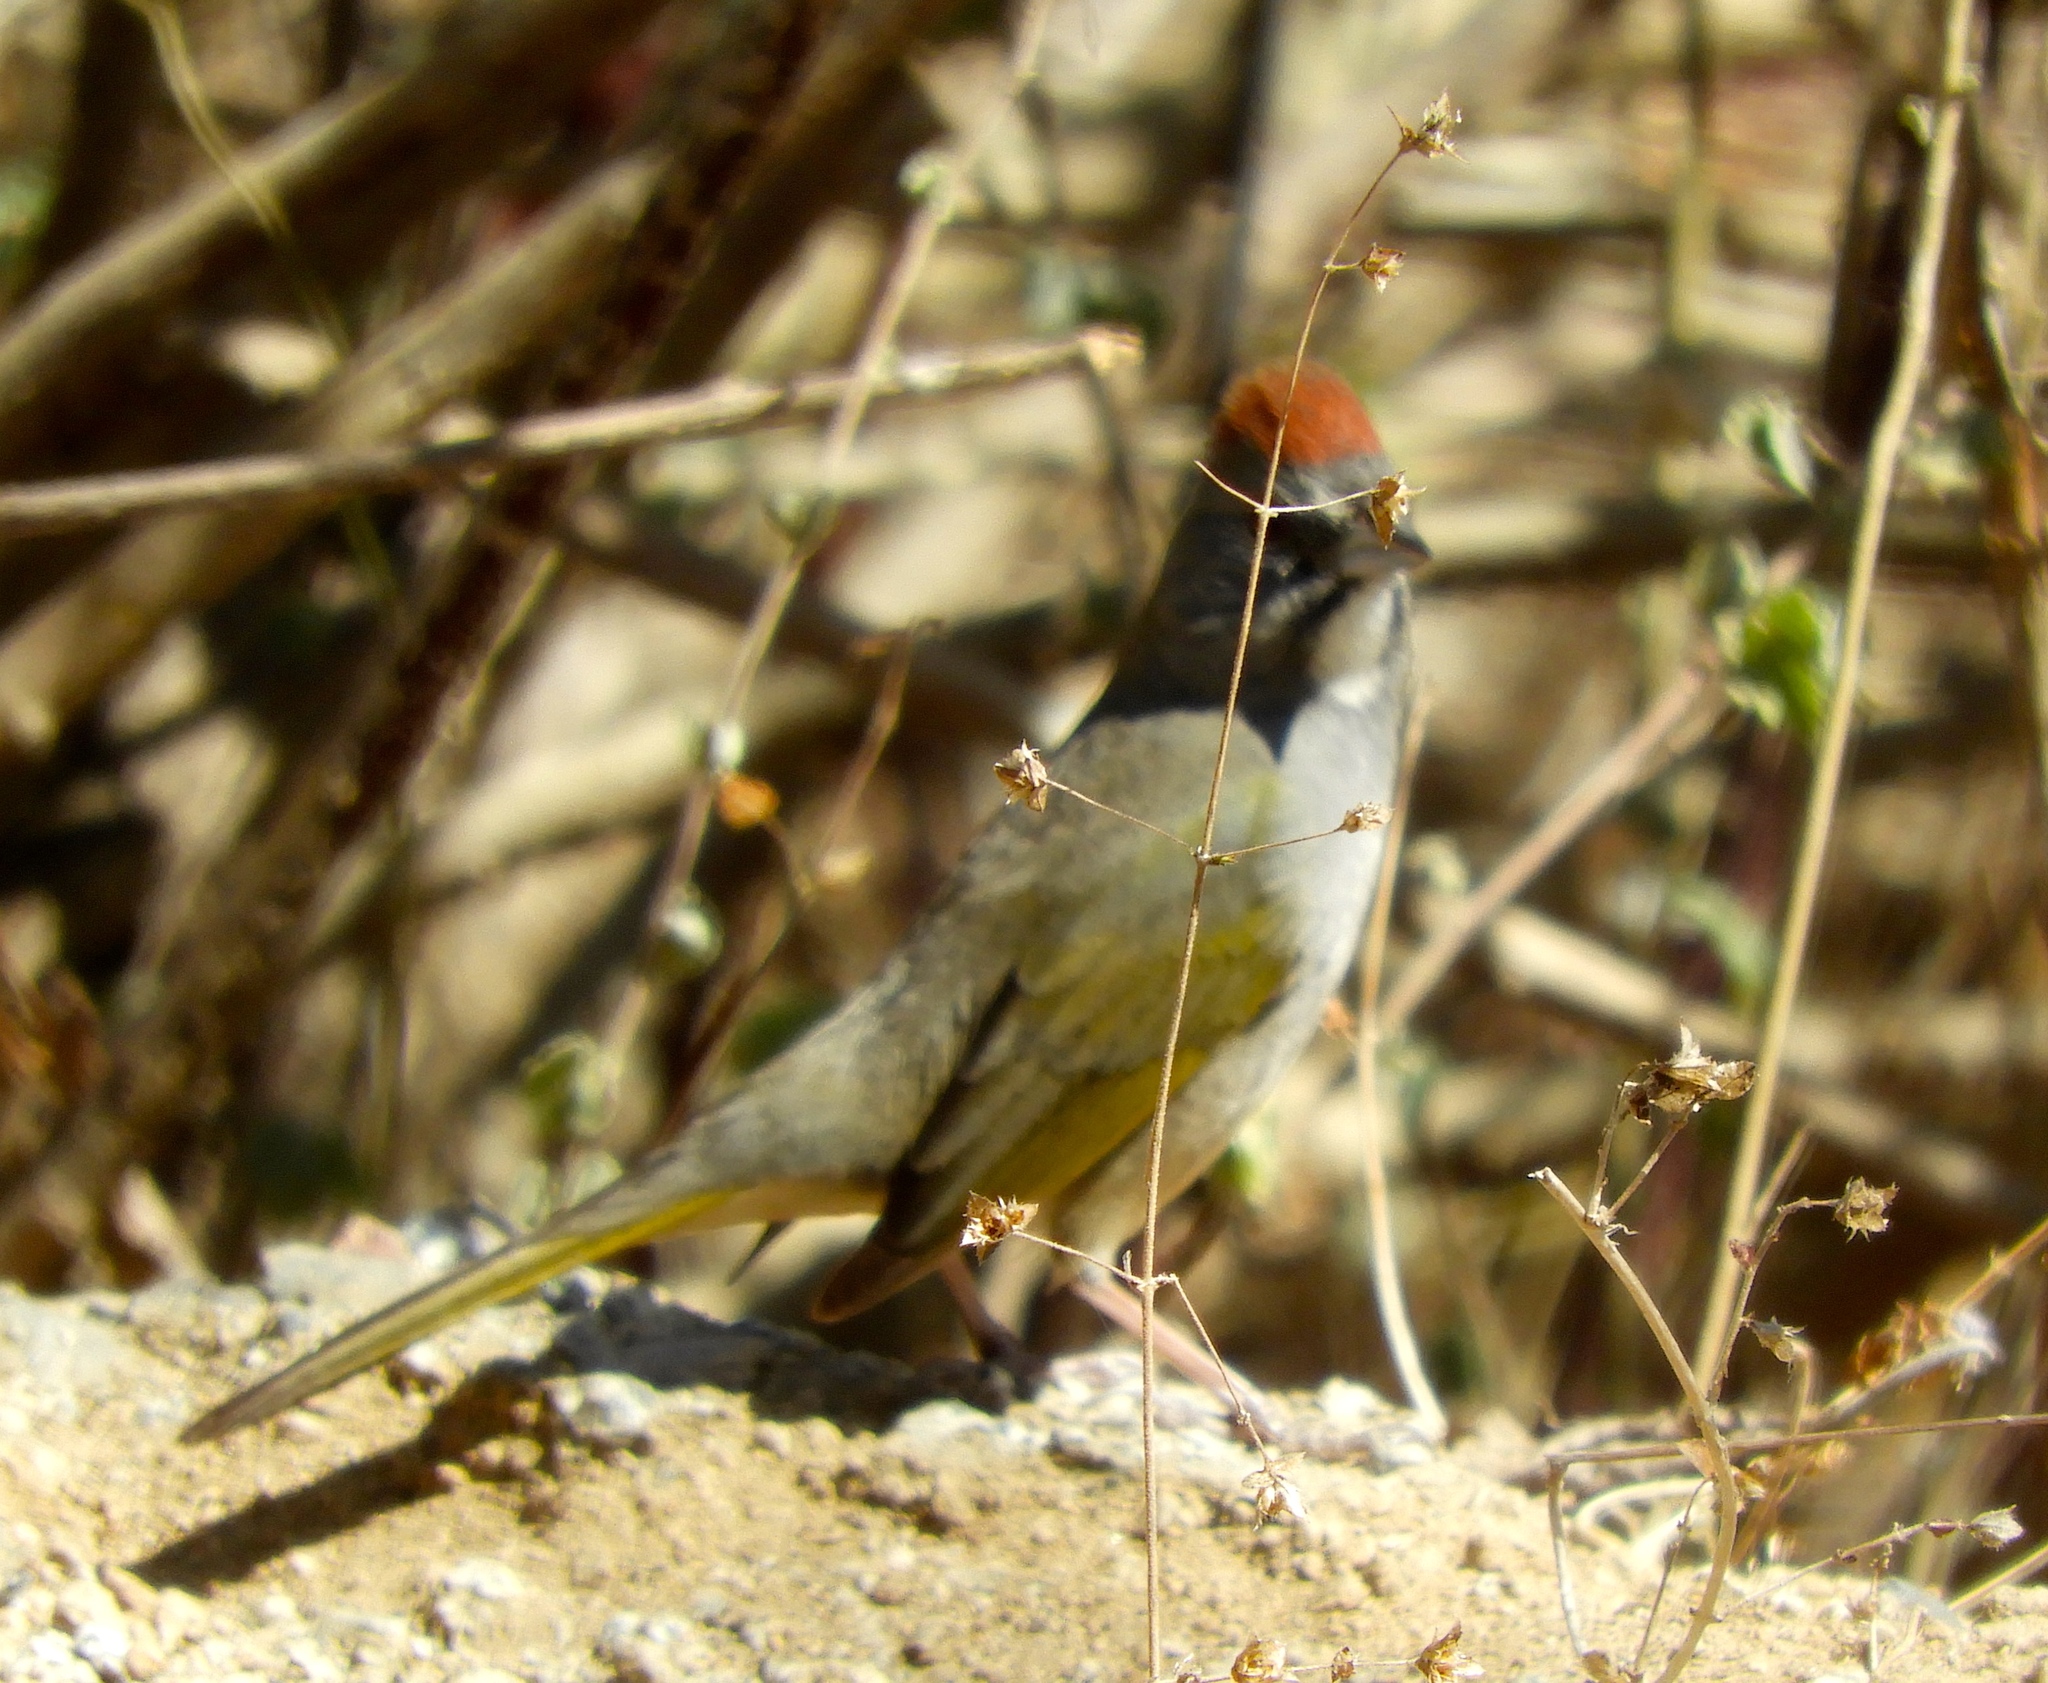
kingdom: Animalia
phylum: Chordata
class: Aves
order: Passeriformes
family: Passerellidae
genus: Pipilo
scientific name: Pipilo chlorurus
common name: Green-tailed towhee
